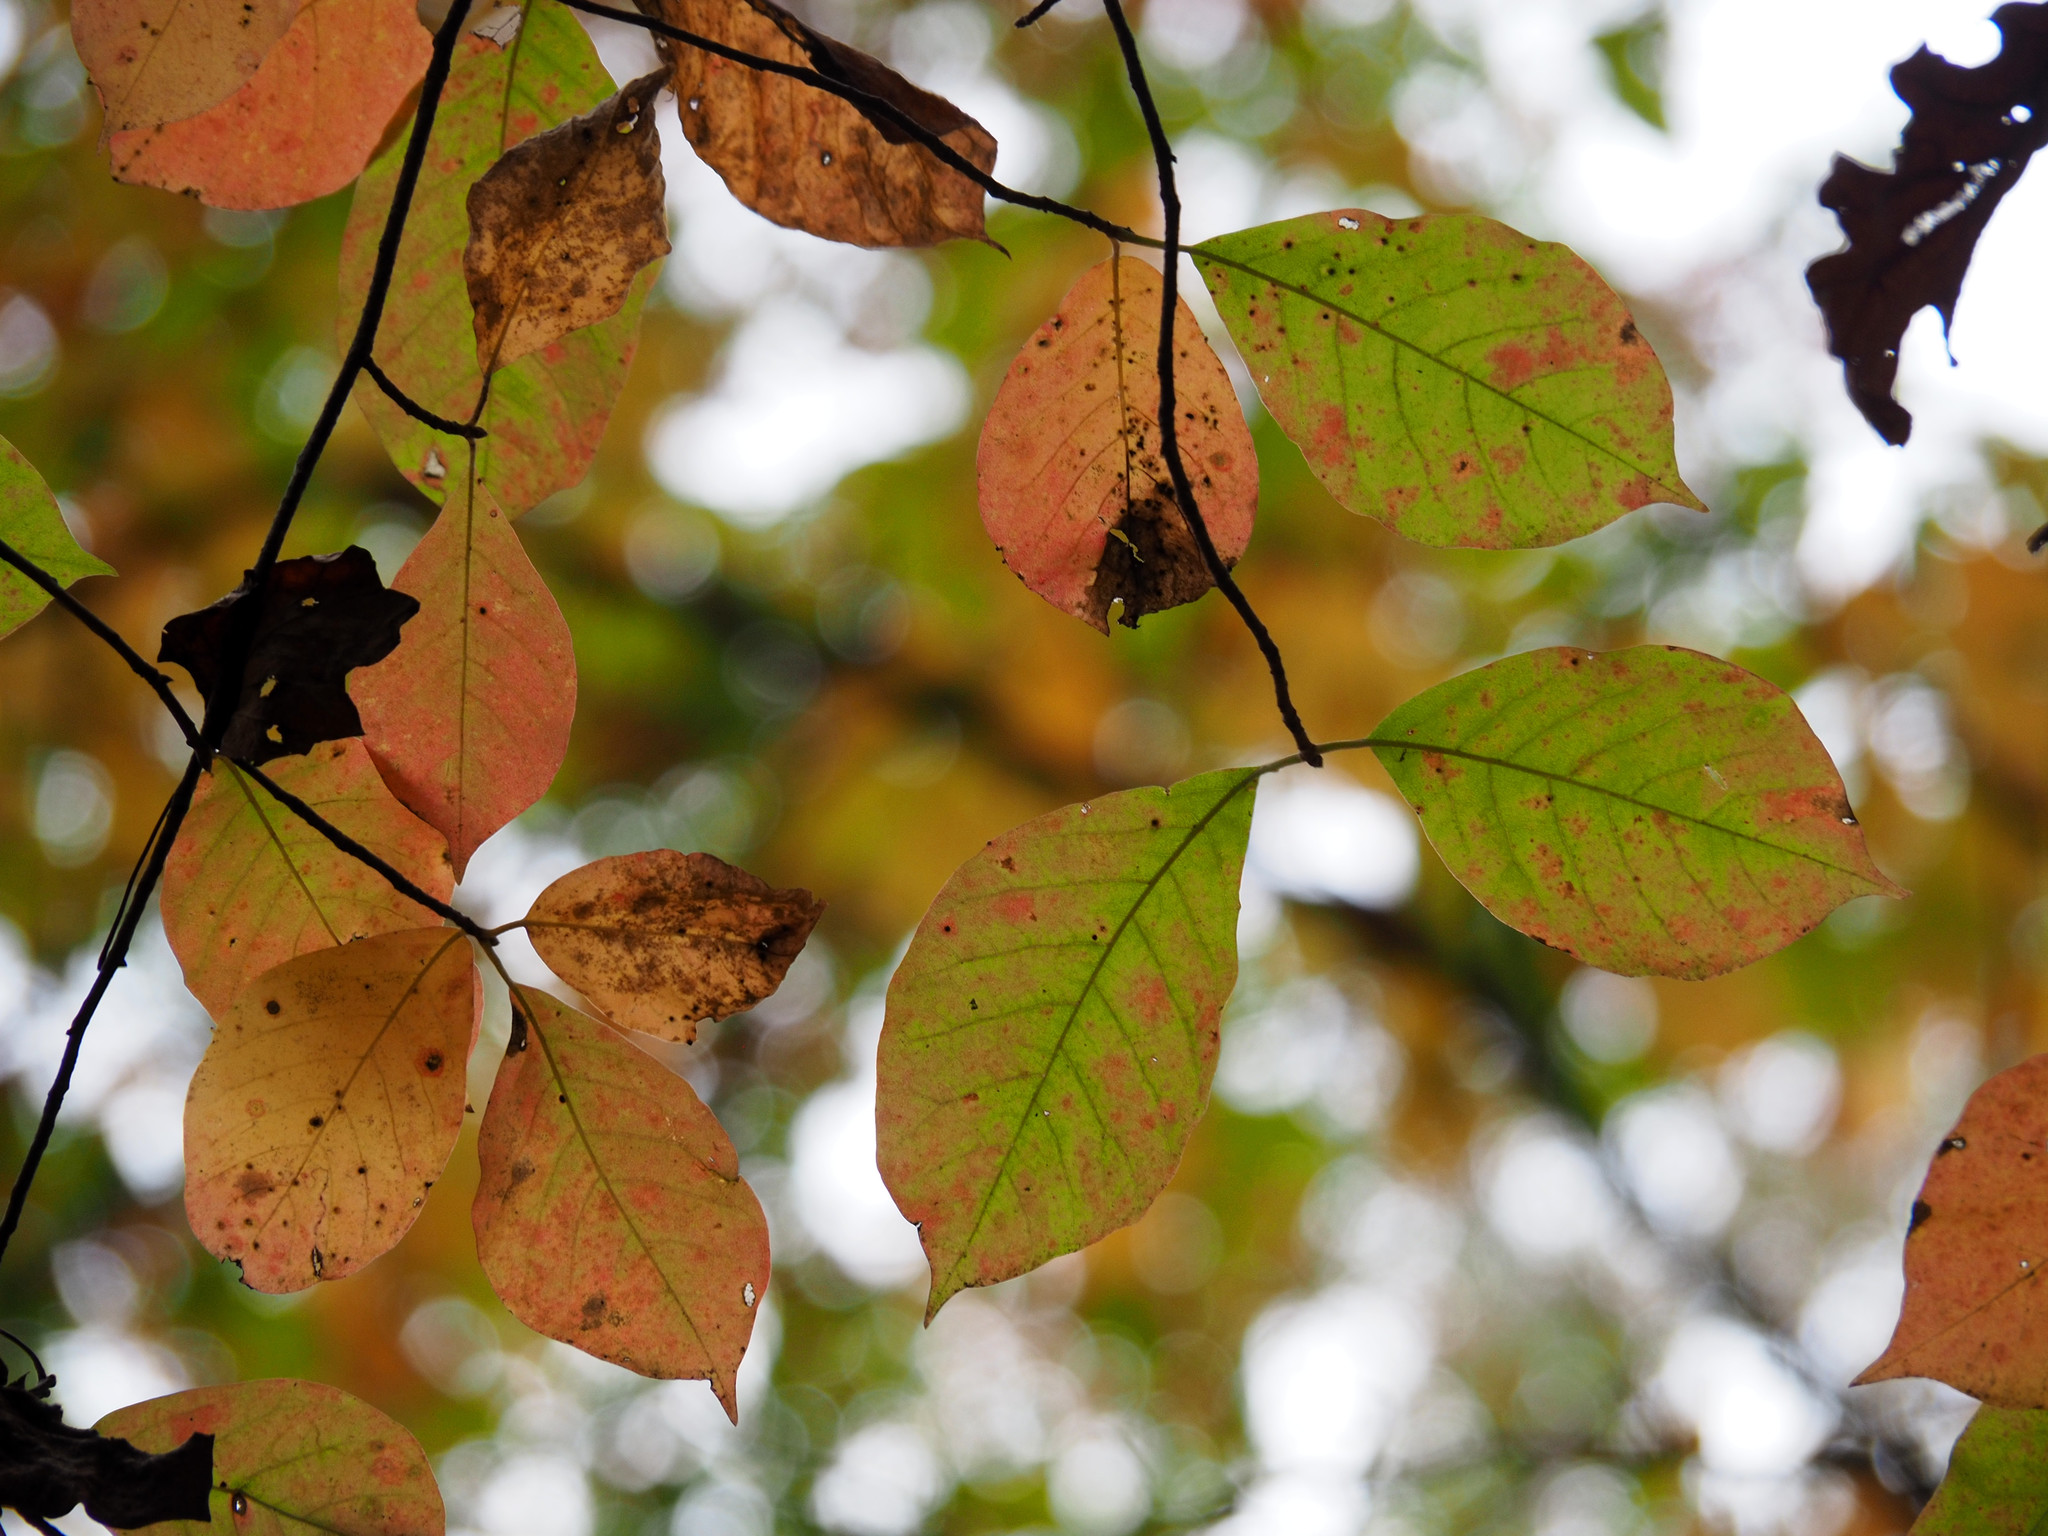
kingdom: Plantae
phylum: Tracheophyta
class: Magnoliopsida
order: Cornales
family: Nyssaceae
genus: Nyssa
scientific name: Nyssa sylvatica
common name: Black tupelo
